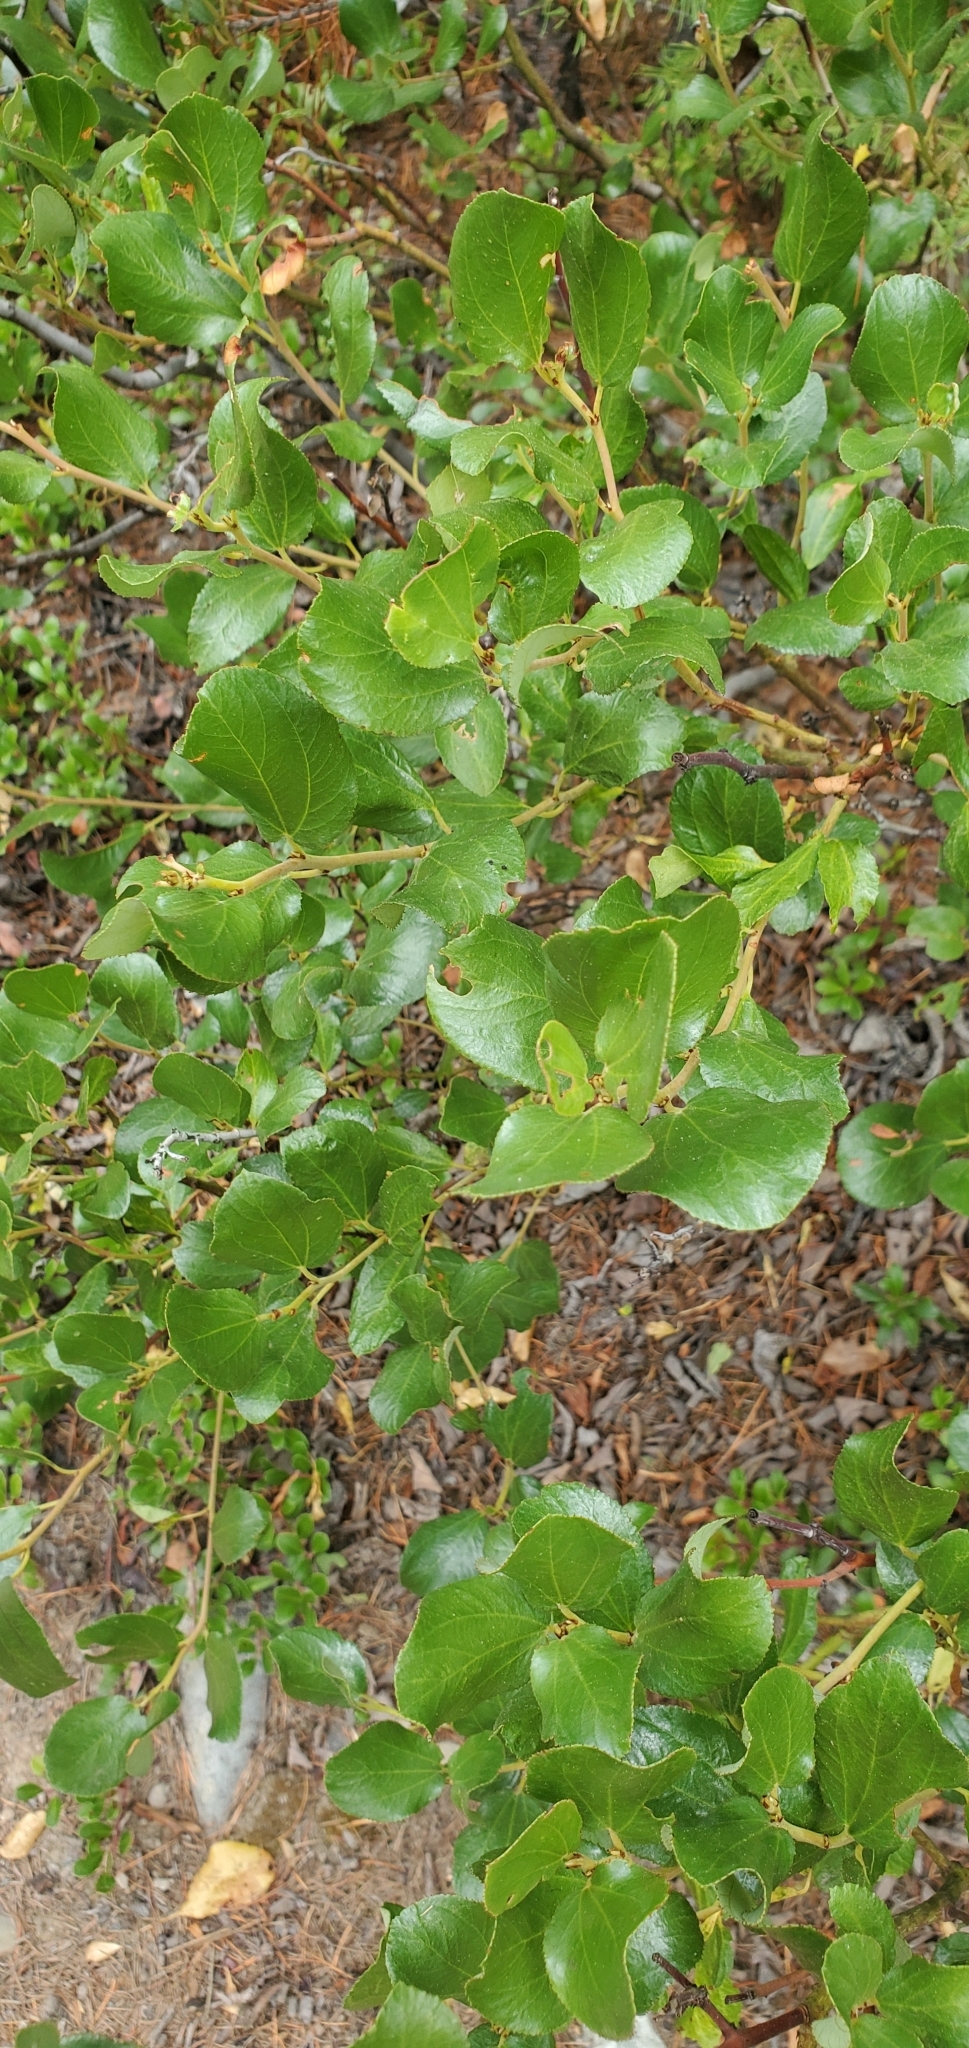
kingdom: Plantae
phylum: Tracheophyta
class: Magnoliopsida
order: Rosales
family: Rhamnaceae
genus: Ceanothus
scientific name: Ceanothus velutinus
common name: Snowbrush
